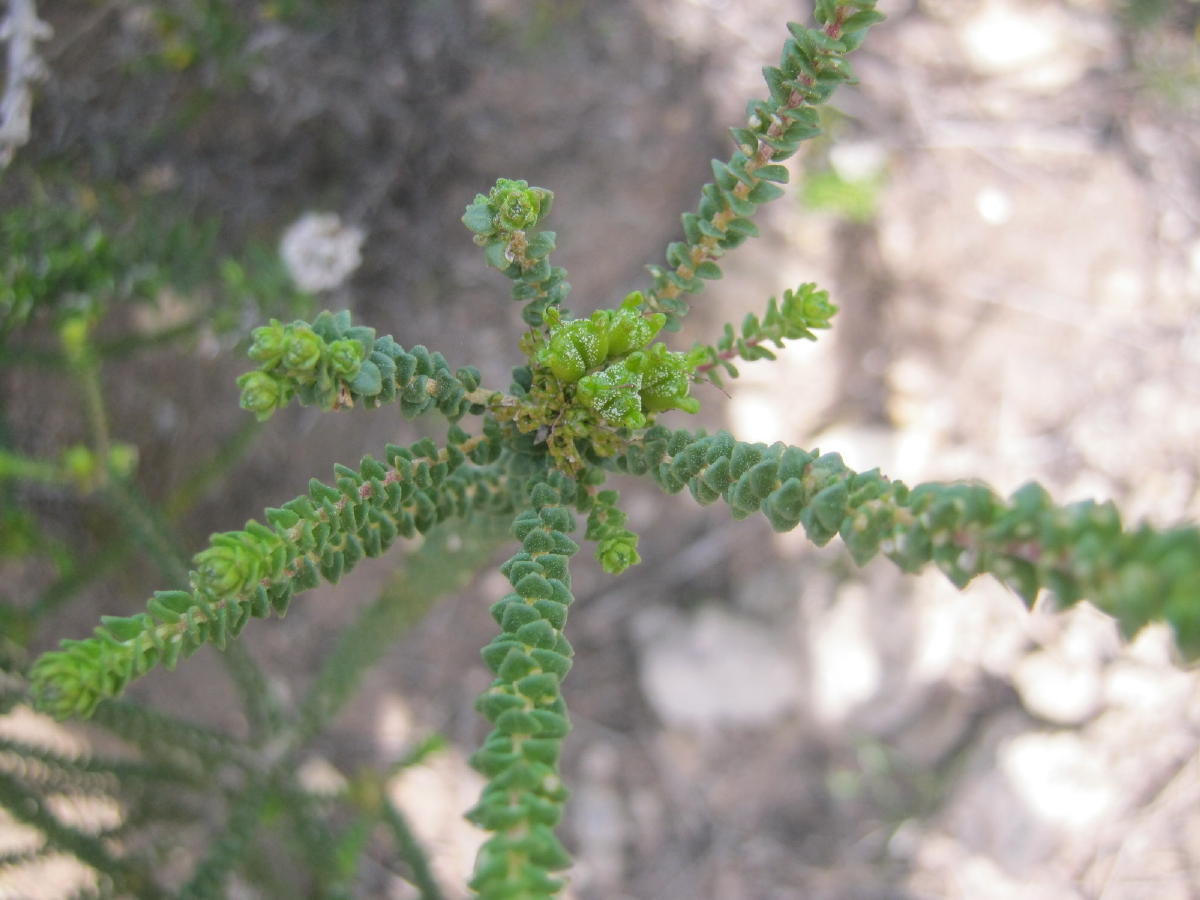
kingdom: Plantae
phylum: Tracheophyta
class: Magnoliopsida
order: Sapindales
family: Rutaceae
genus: Agathosma
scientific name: Agathosma muirii
